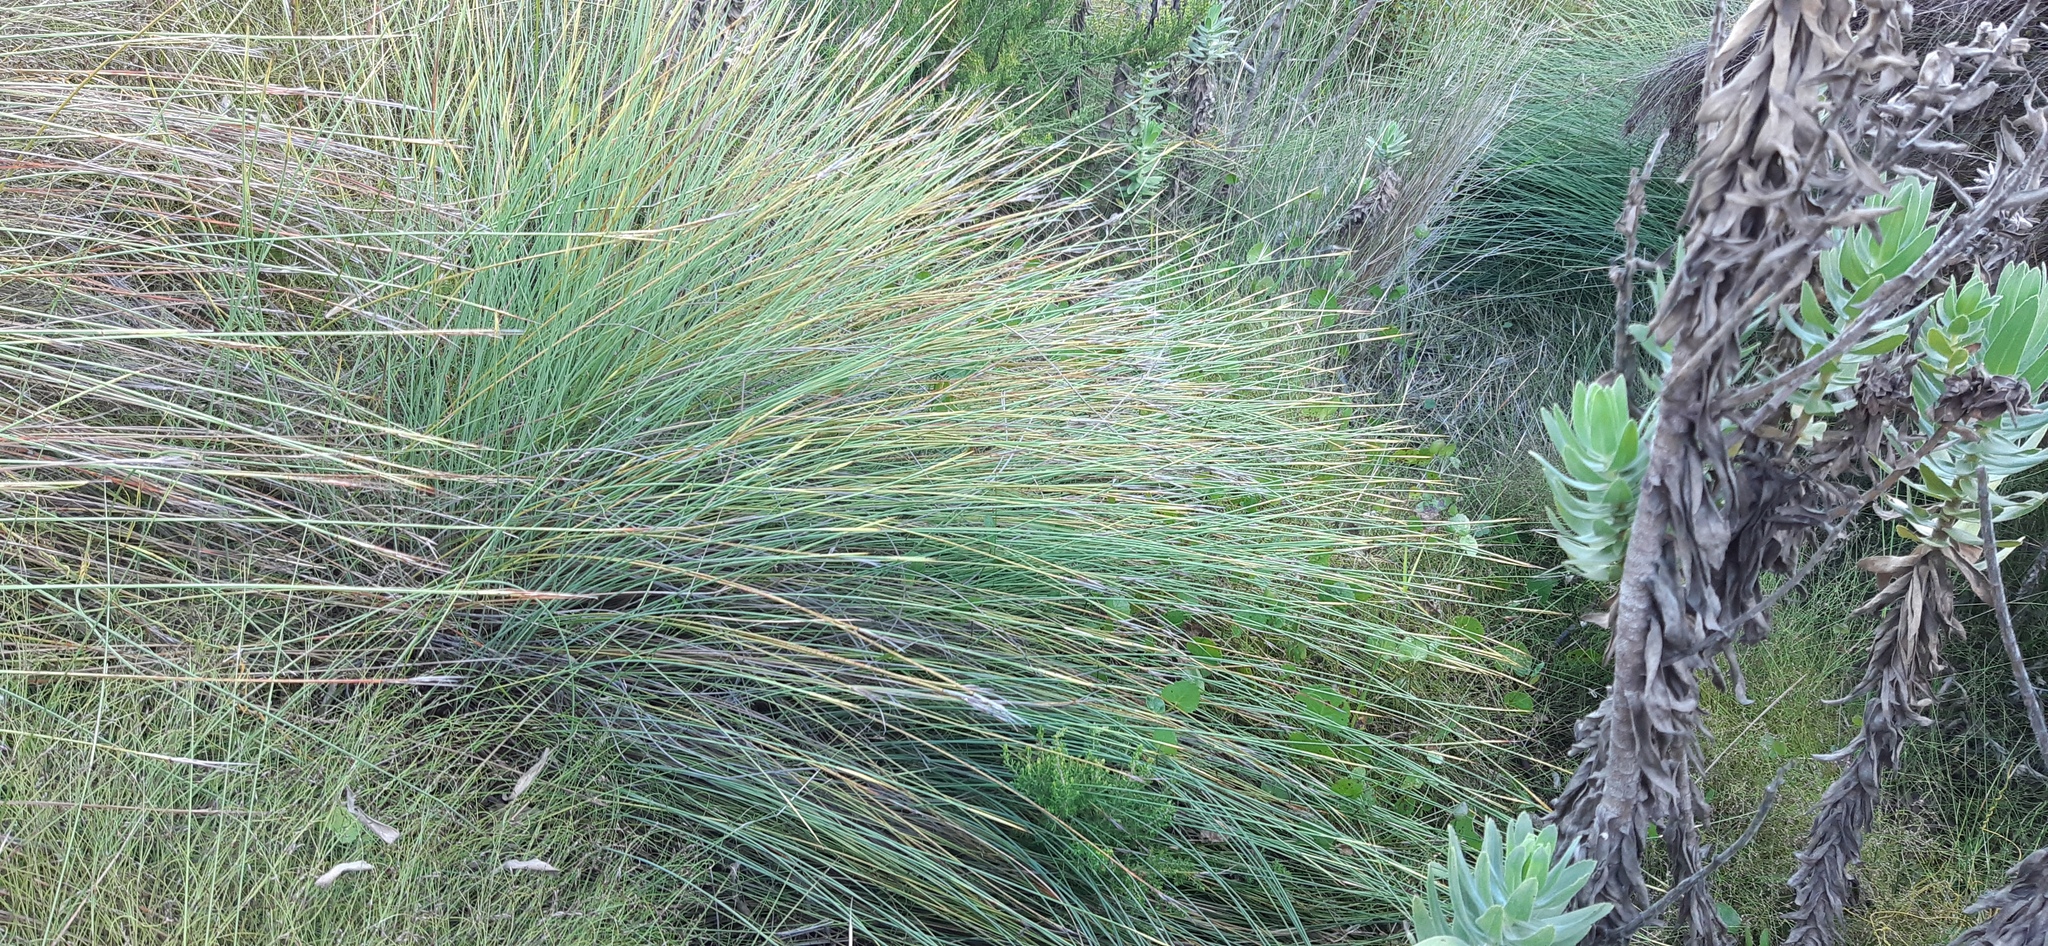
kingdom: Plantae
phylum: Tracheophyta
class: Liliopsida
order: Poales
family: Cyperaceae
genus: Schoenus
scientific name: Schoenus quadrangularis
